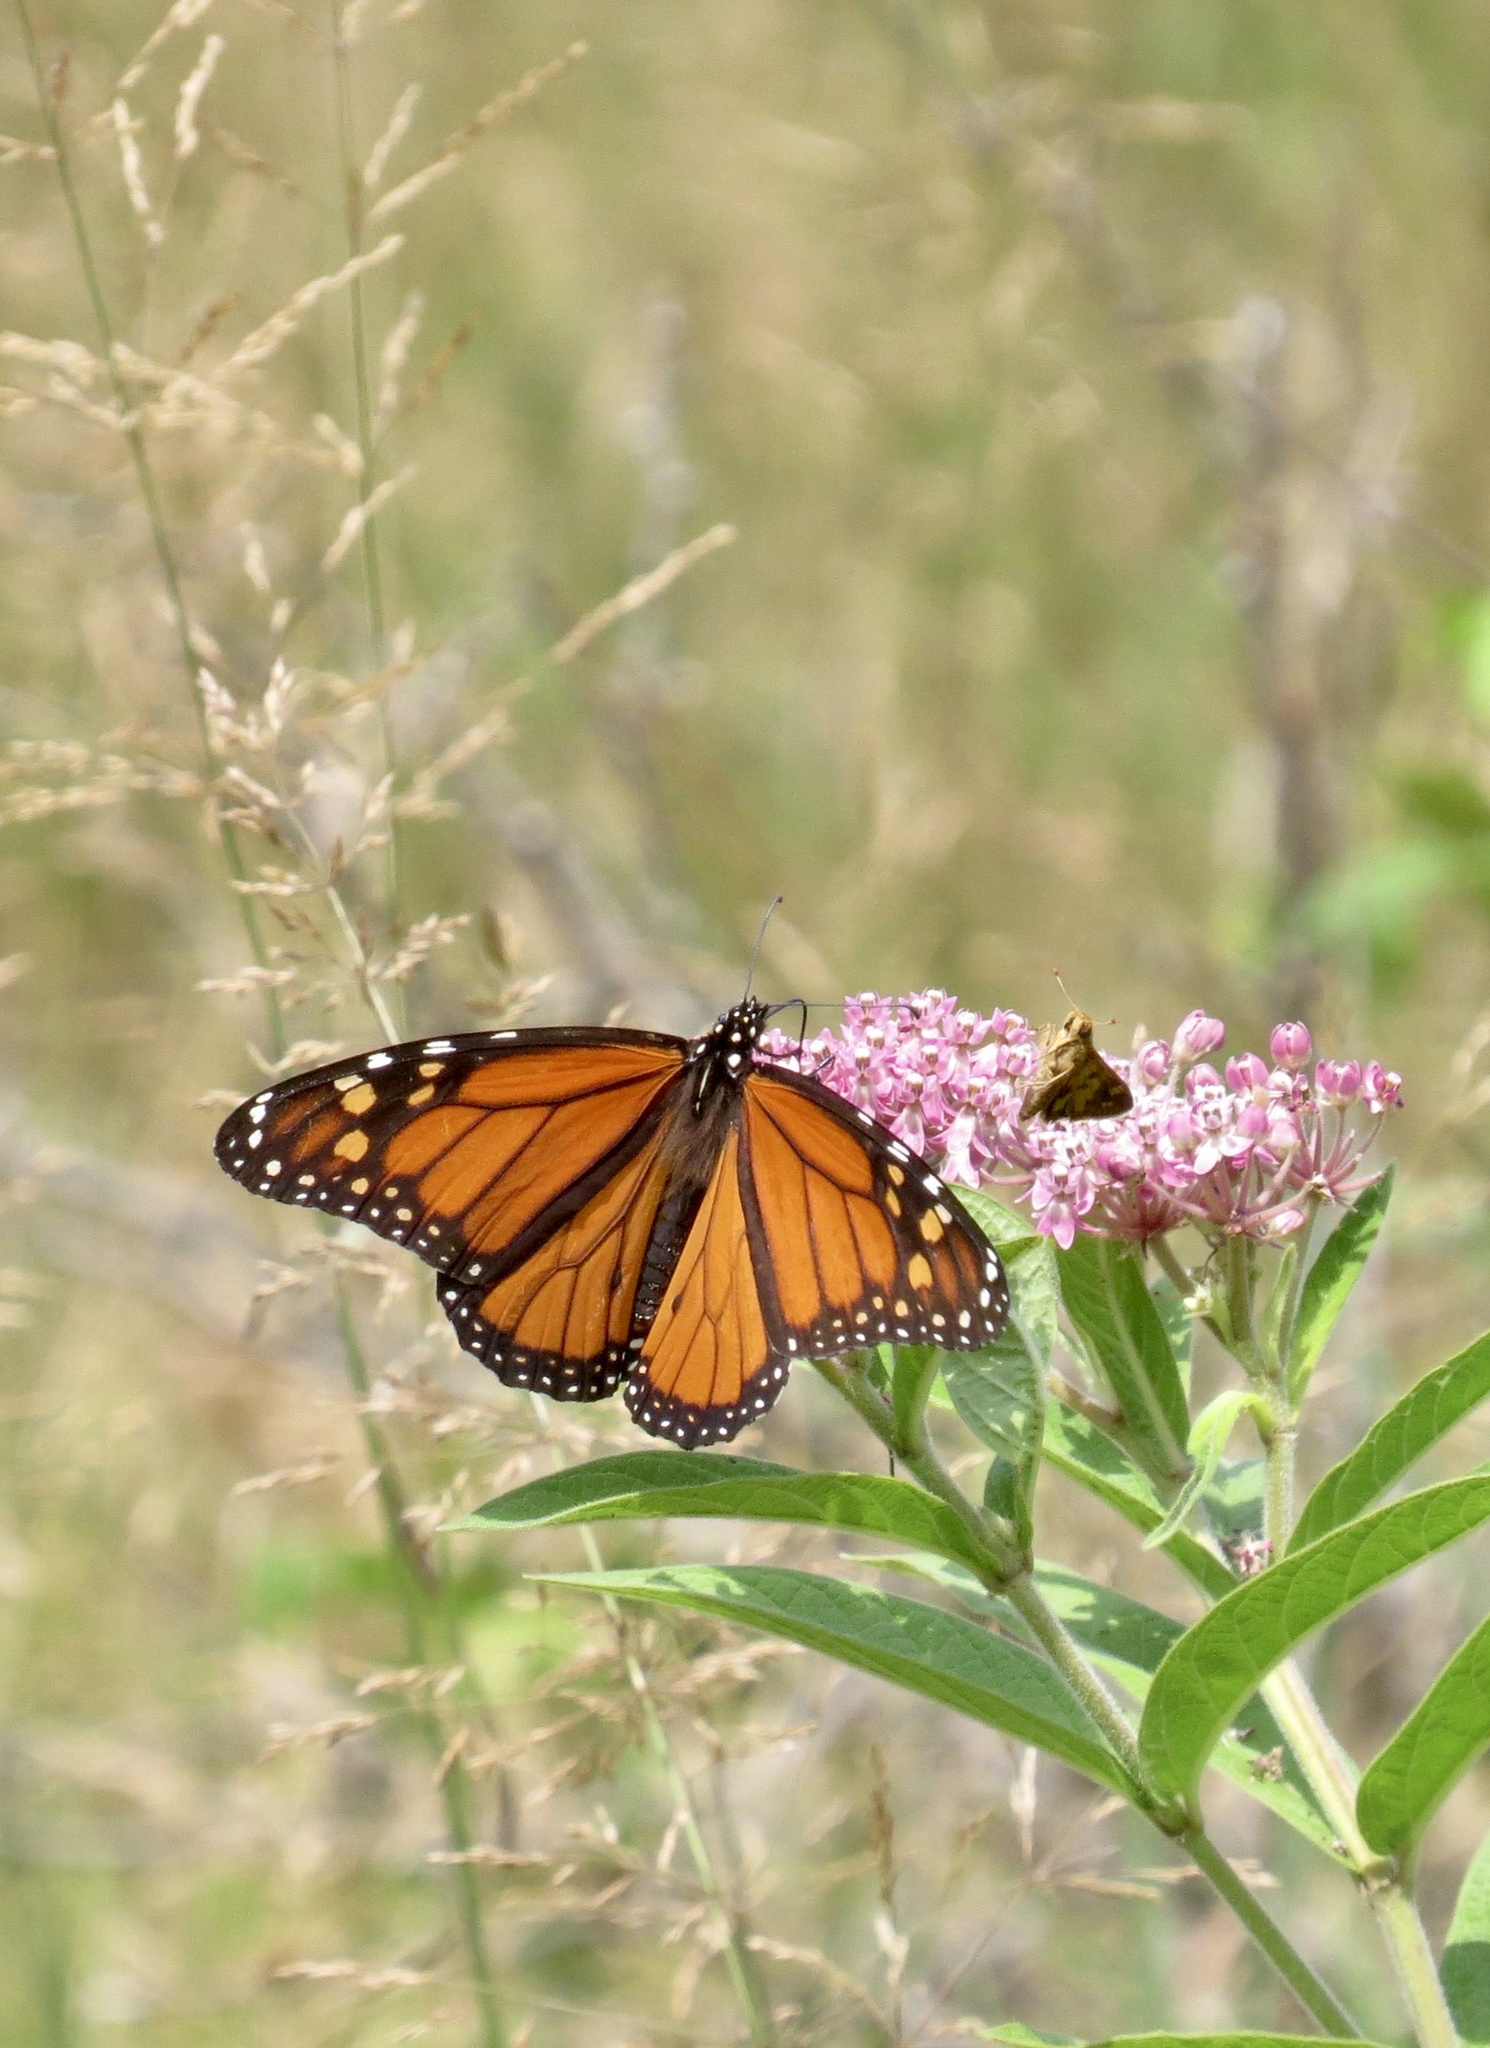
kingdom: Animalia
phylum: Arthropoda
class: Insecta
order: Lepidoptera
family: Nymphalidae
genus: Danaus
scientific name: Danaus plexippus
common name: Monarch
